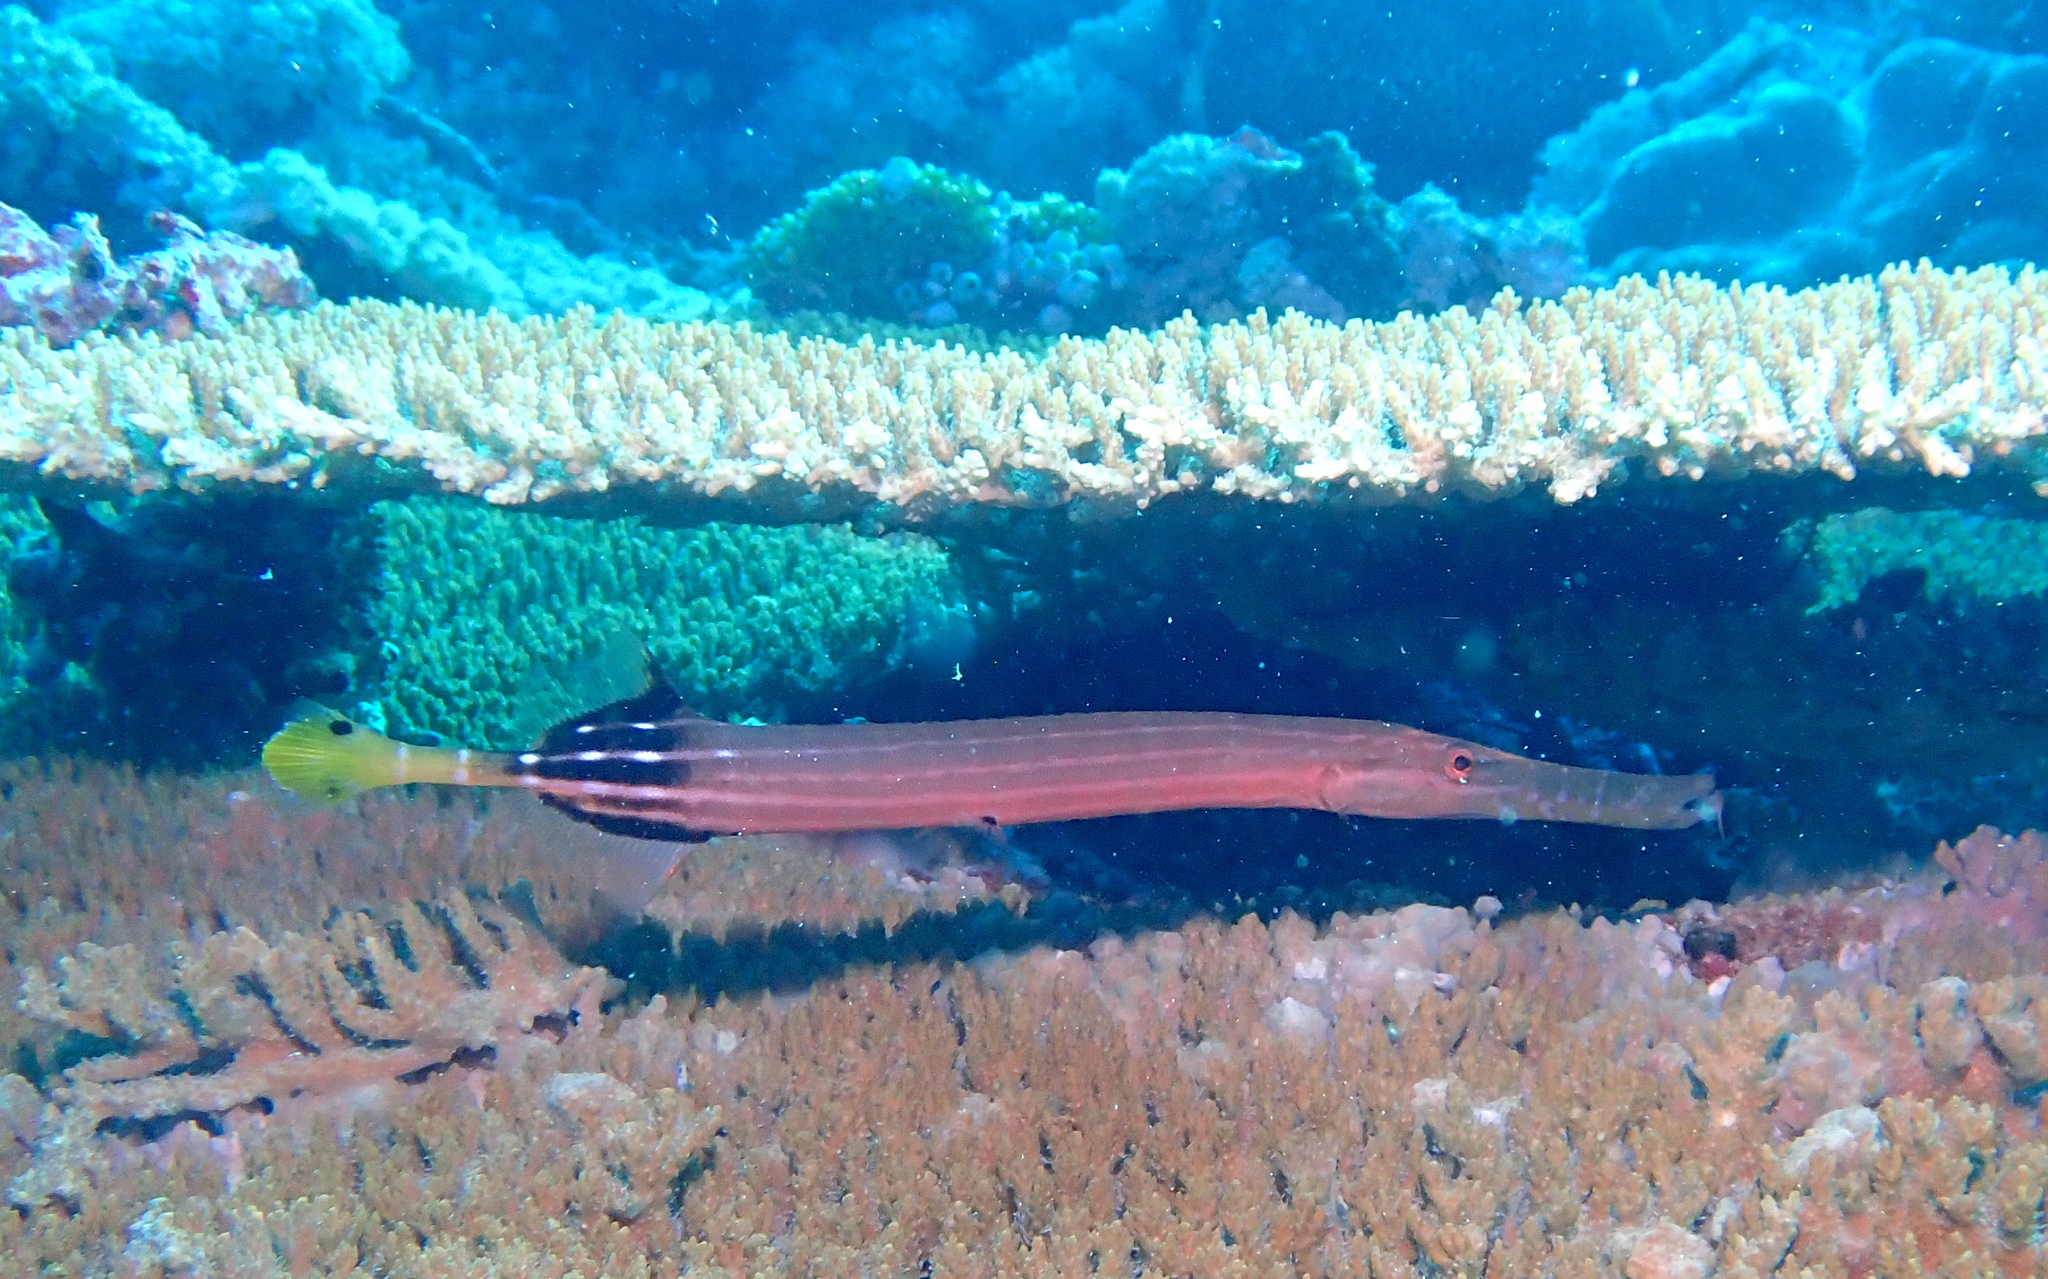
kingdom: Animalia
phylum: Chordata
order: Syngnathiformes
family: Aulostomidae
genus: Aulostomus
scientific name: Aulostomus chinensis
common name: Chinese trumpetfish
